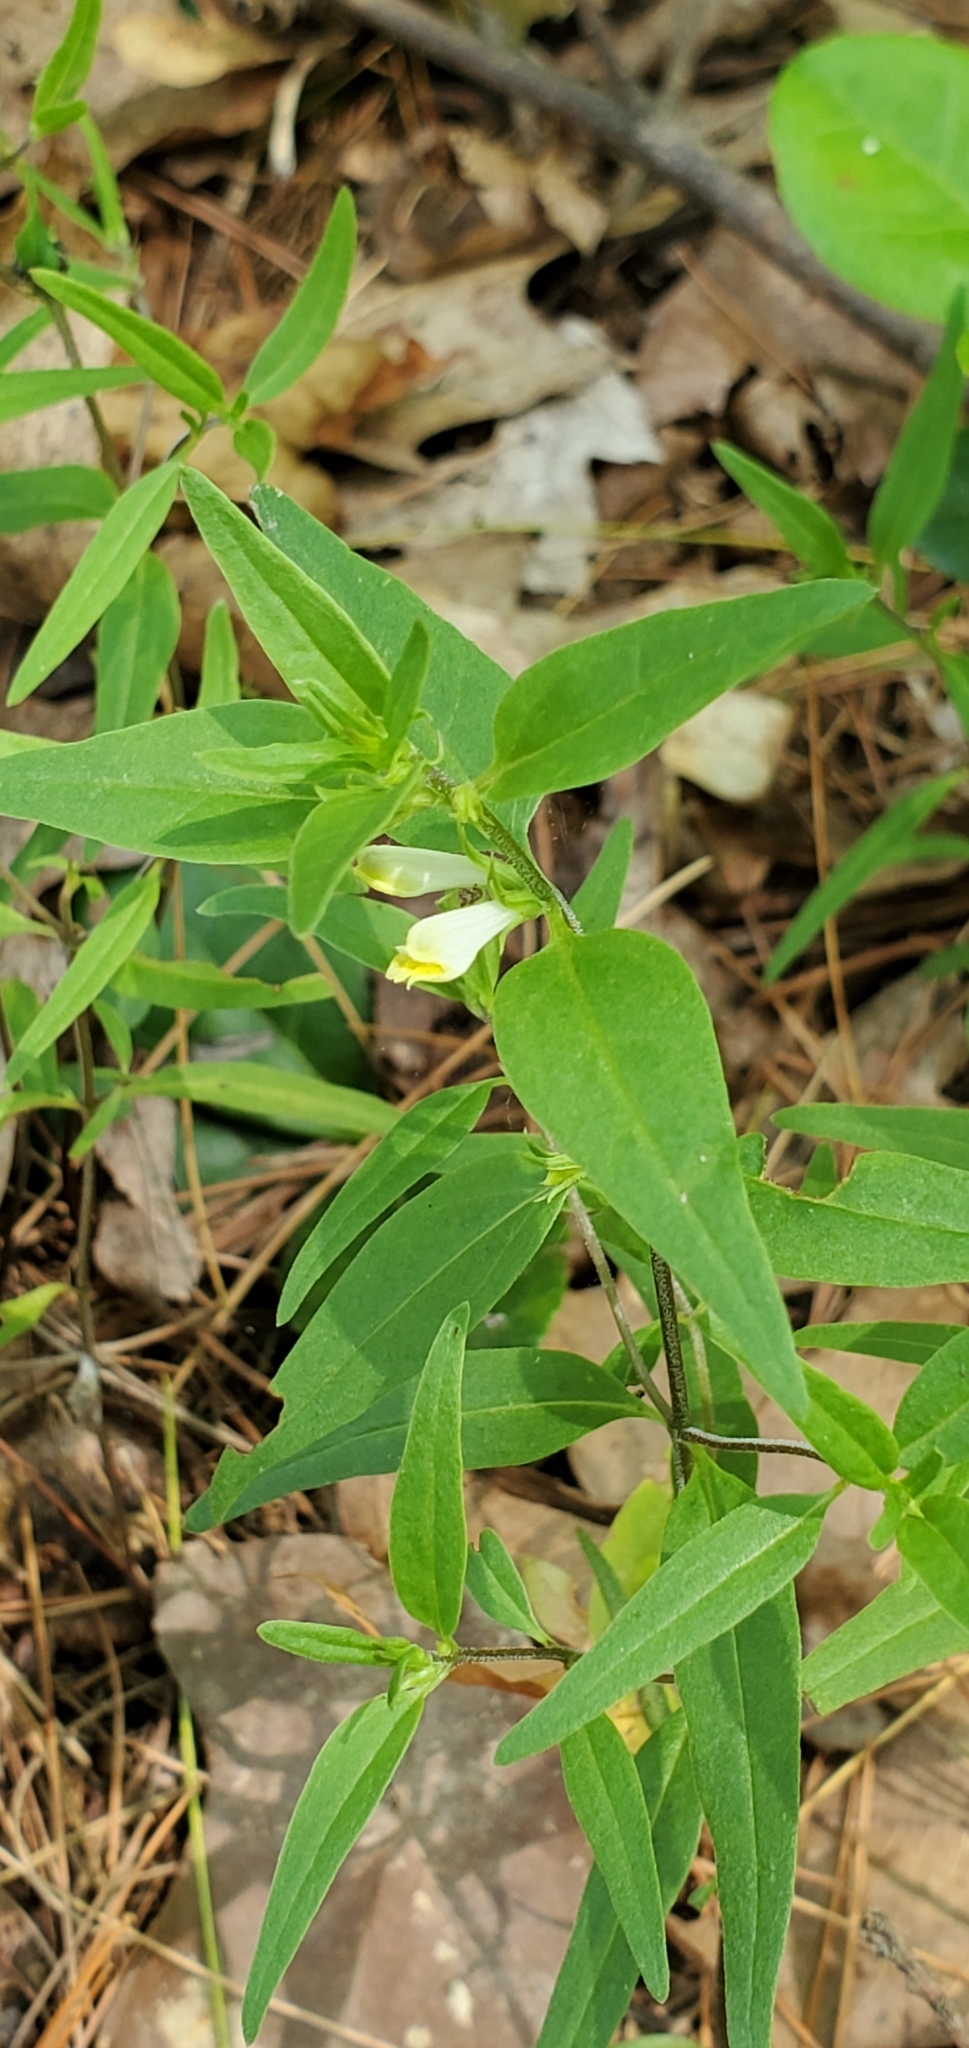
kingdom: Plantae
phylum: Tracheophyta
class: Magnoliopsida
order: Lamiales
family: Orobanchaceae
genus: Melampyrum
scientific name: Melampyrum lineare
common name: American cow-wheat
